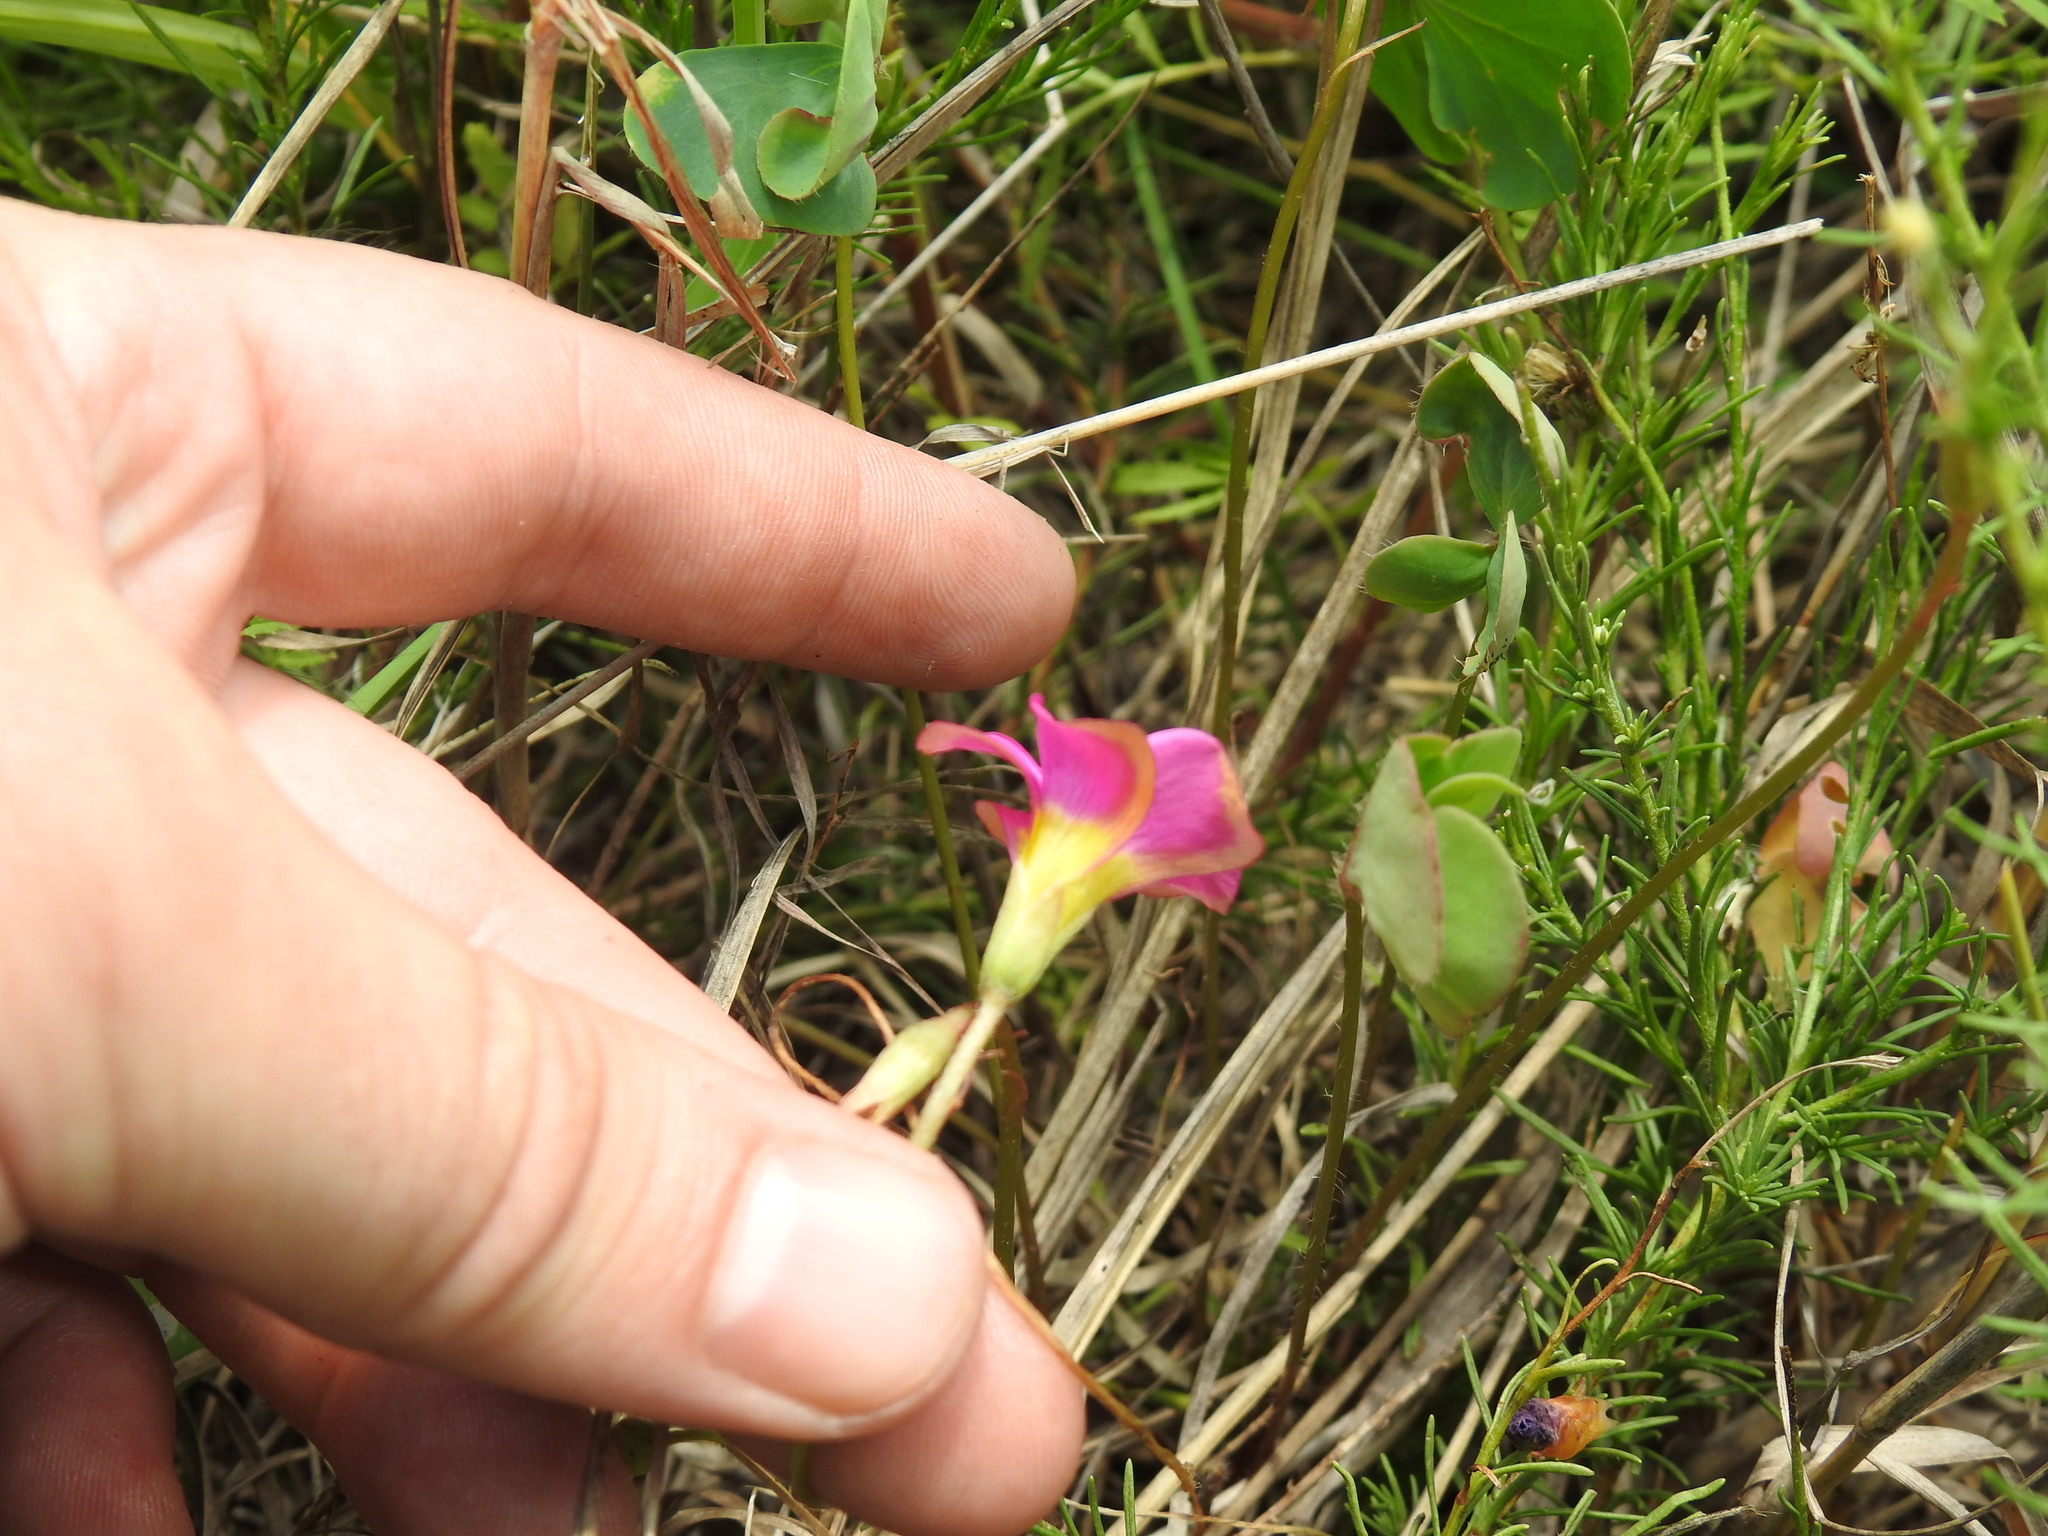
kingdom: Plantae
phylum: Tracheophyta
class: Magnoliopsida
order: Oxalidales
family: Oxalidaceae
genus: Oxalis
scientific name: Oxalis obliquifolia
